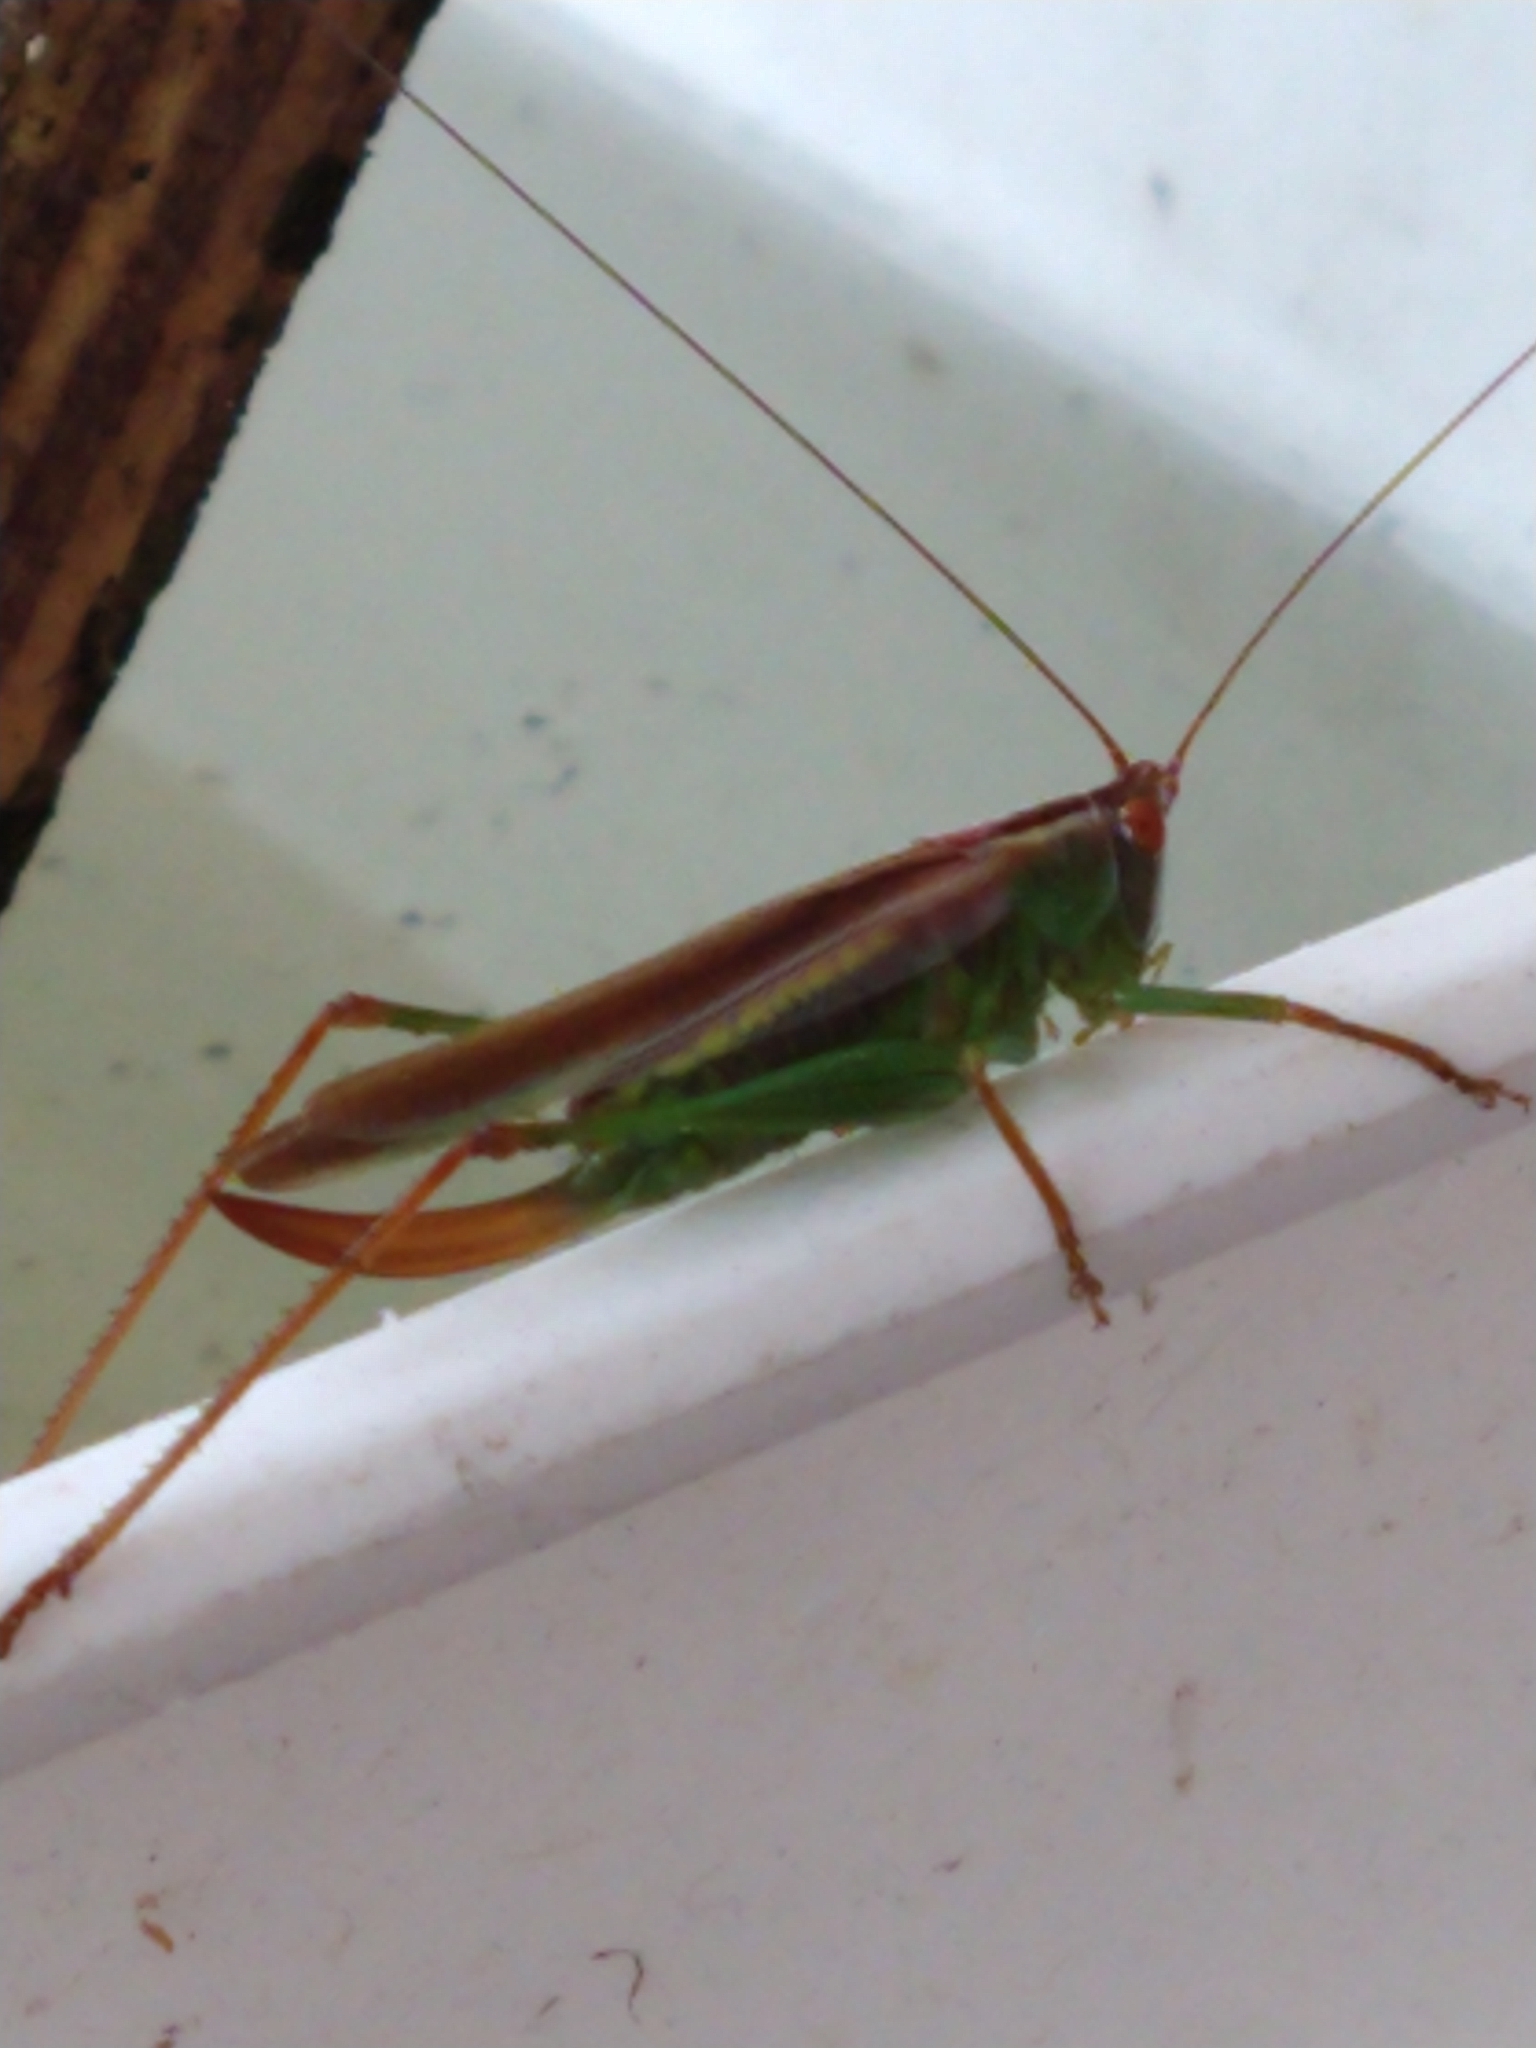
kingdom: Animalia
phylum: Arthropoda
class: Insecta
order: Orthoptera
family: Tettigoniidae
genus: Orchelimum
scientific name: Orchelimum minor
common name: Lesser pine meadow katydid
